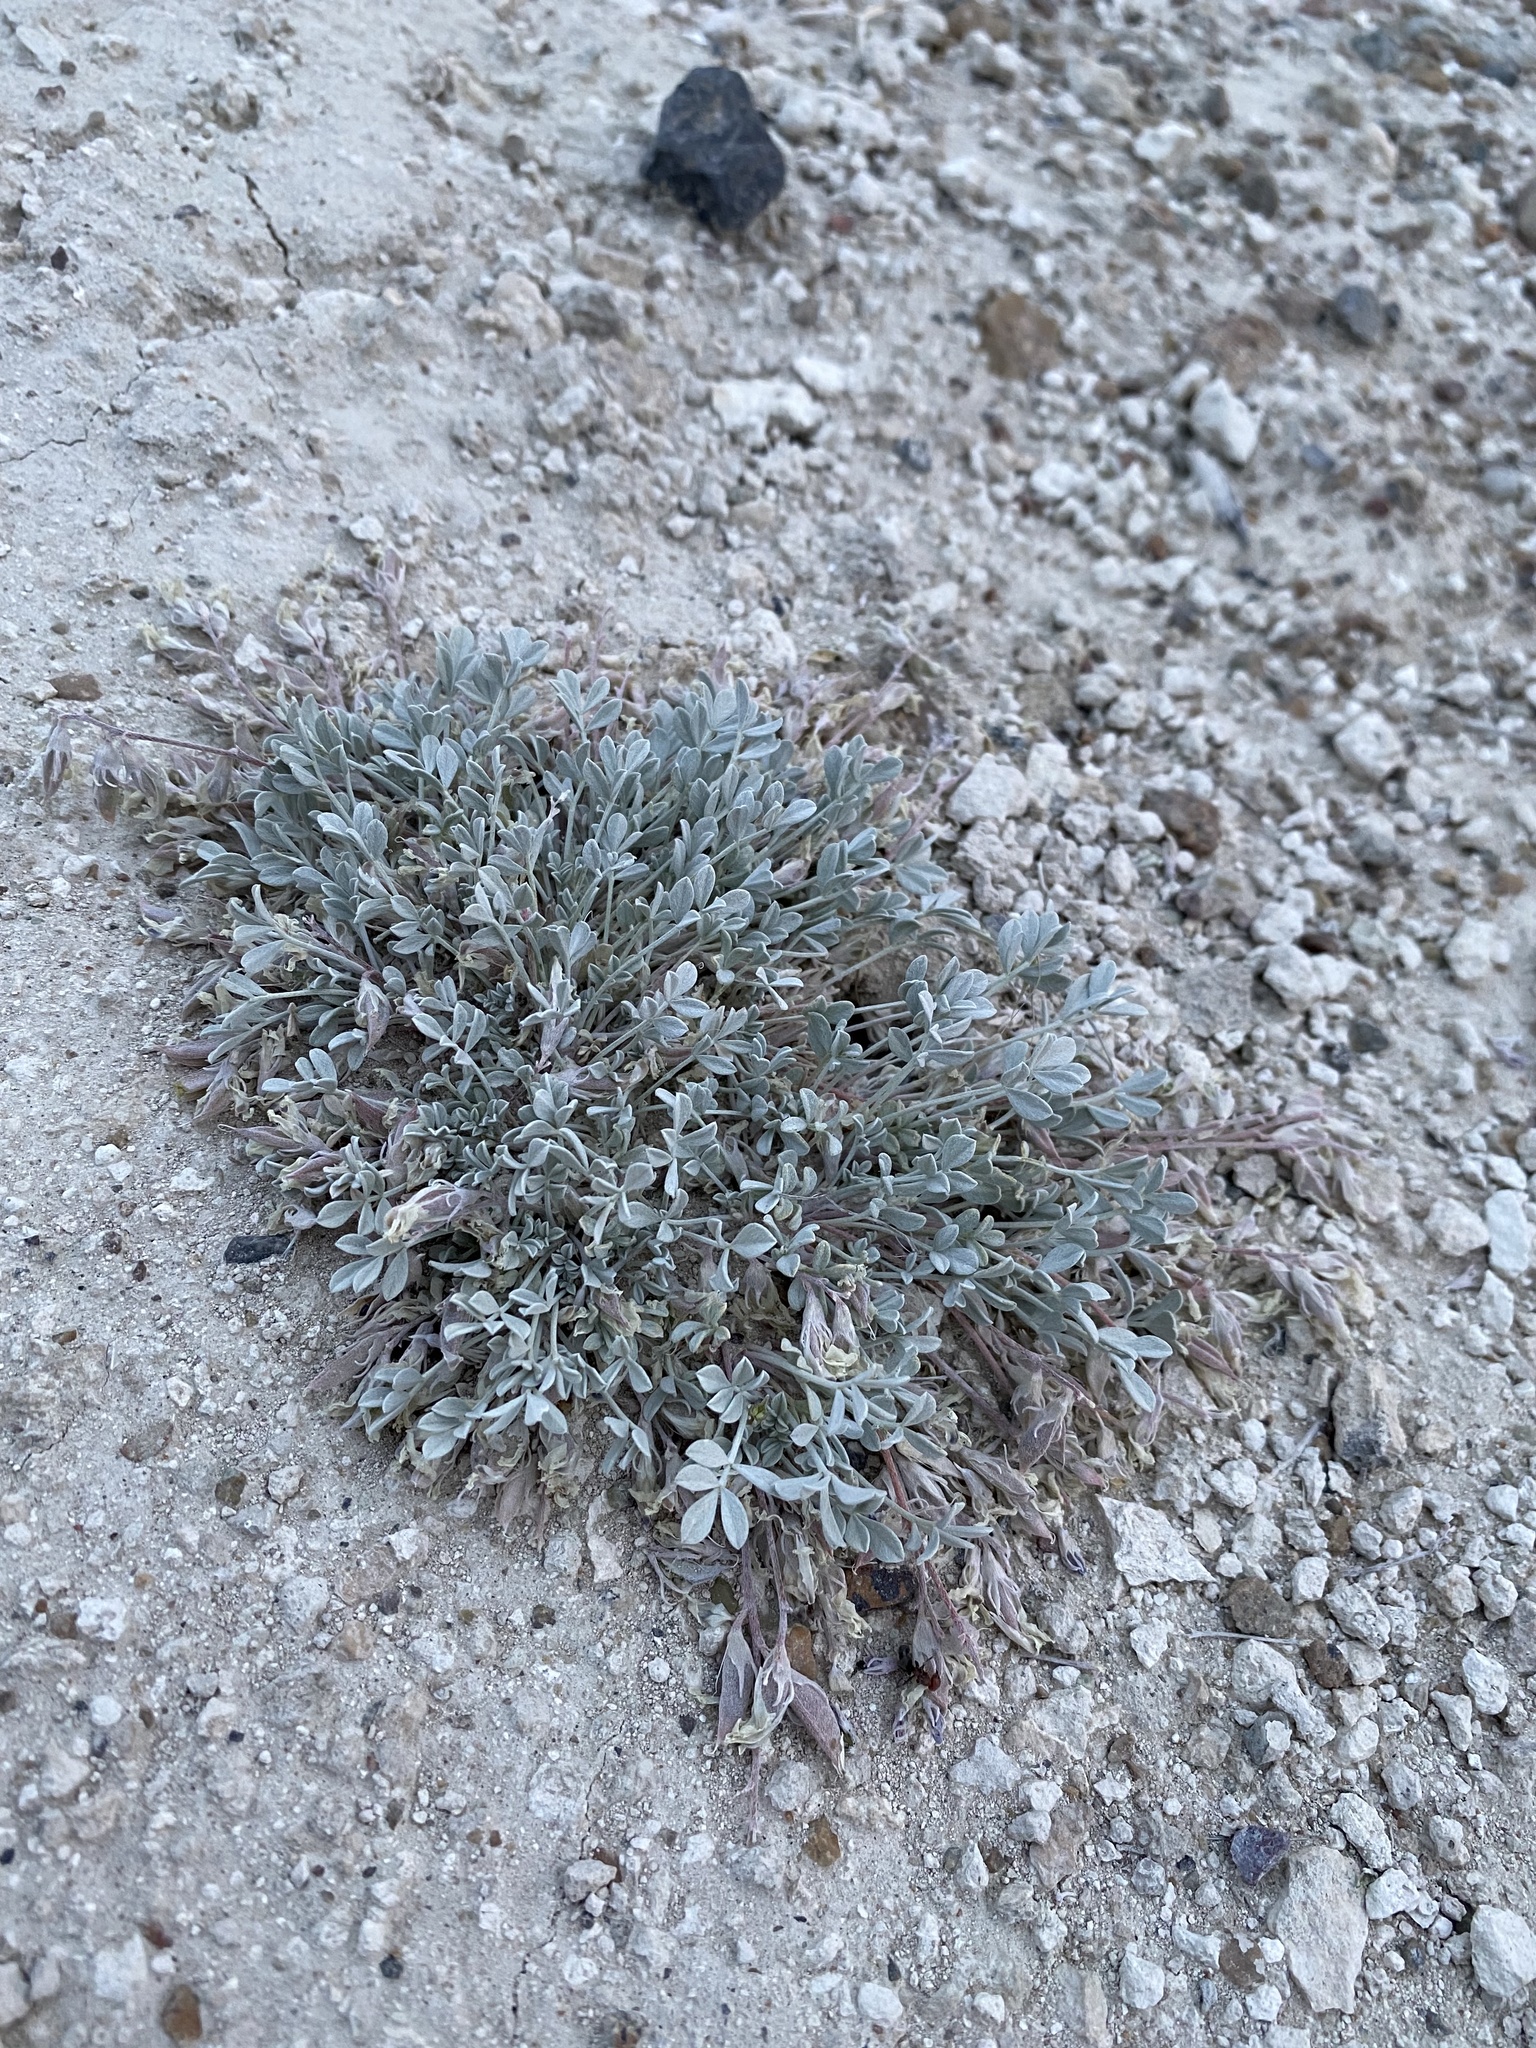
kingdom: Plantae
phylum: Tracheophyta
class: Magnoliopsida
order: Fabales
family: Fabaceae
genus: Astragalus
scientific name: Astragalus calycosus
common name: King's milkvetch
